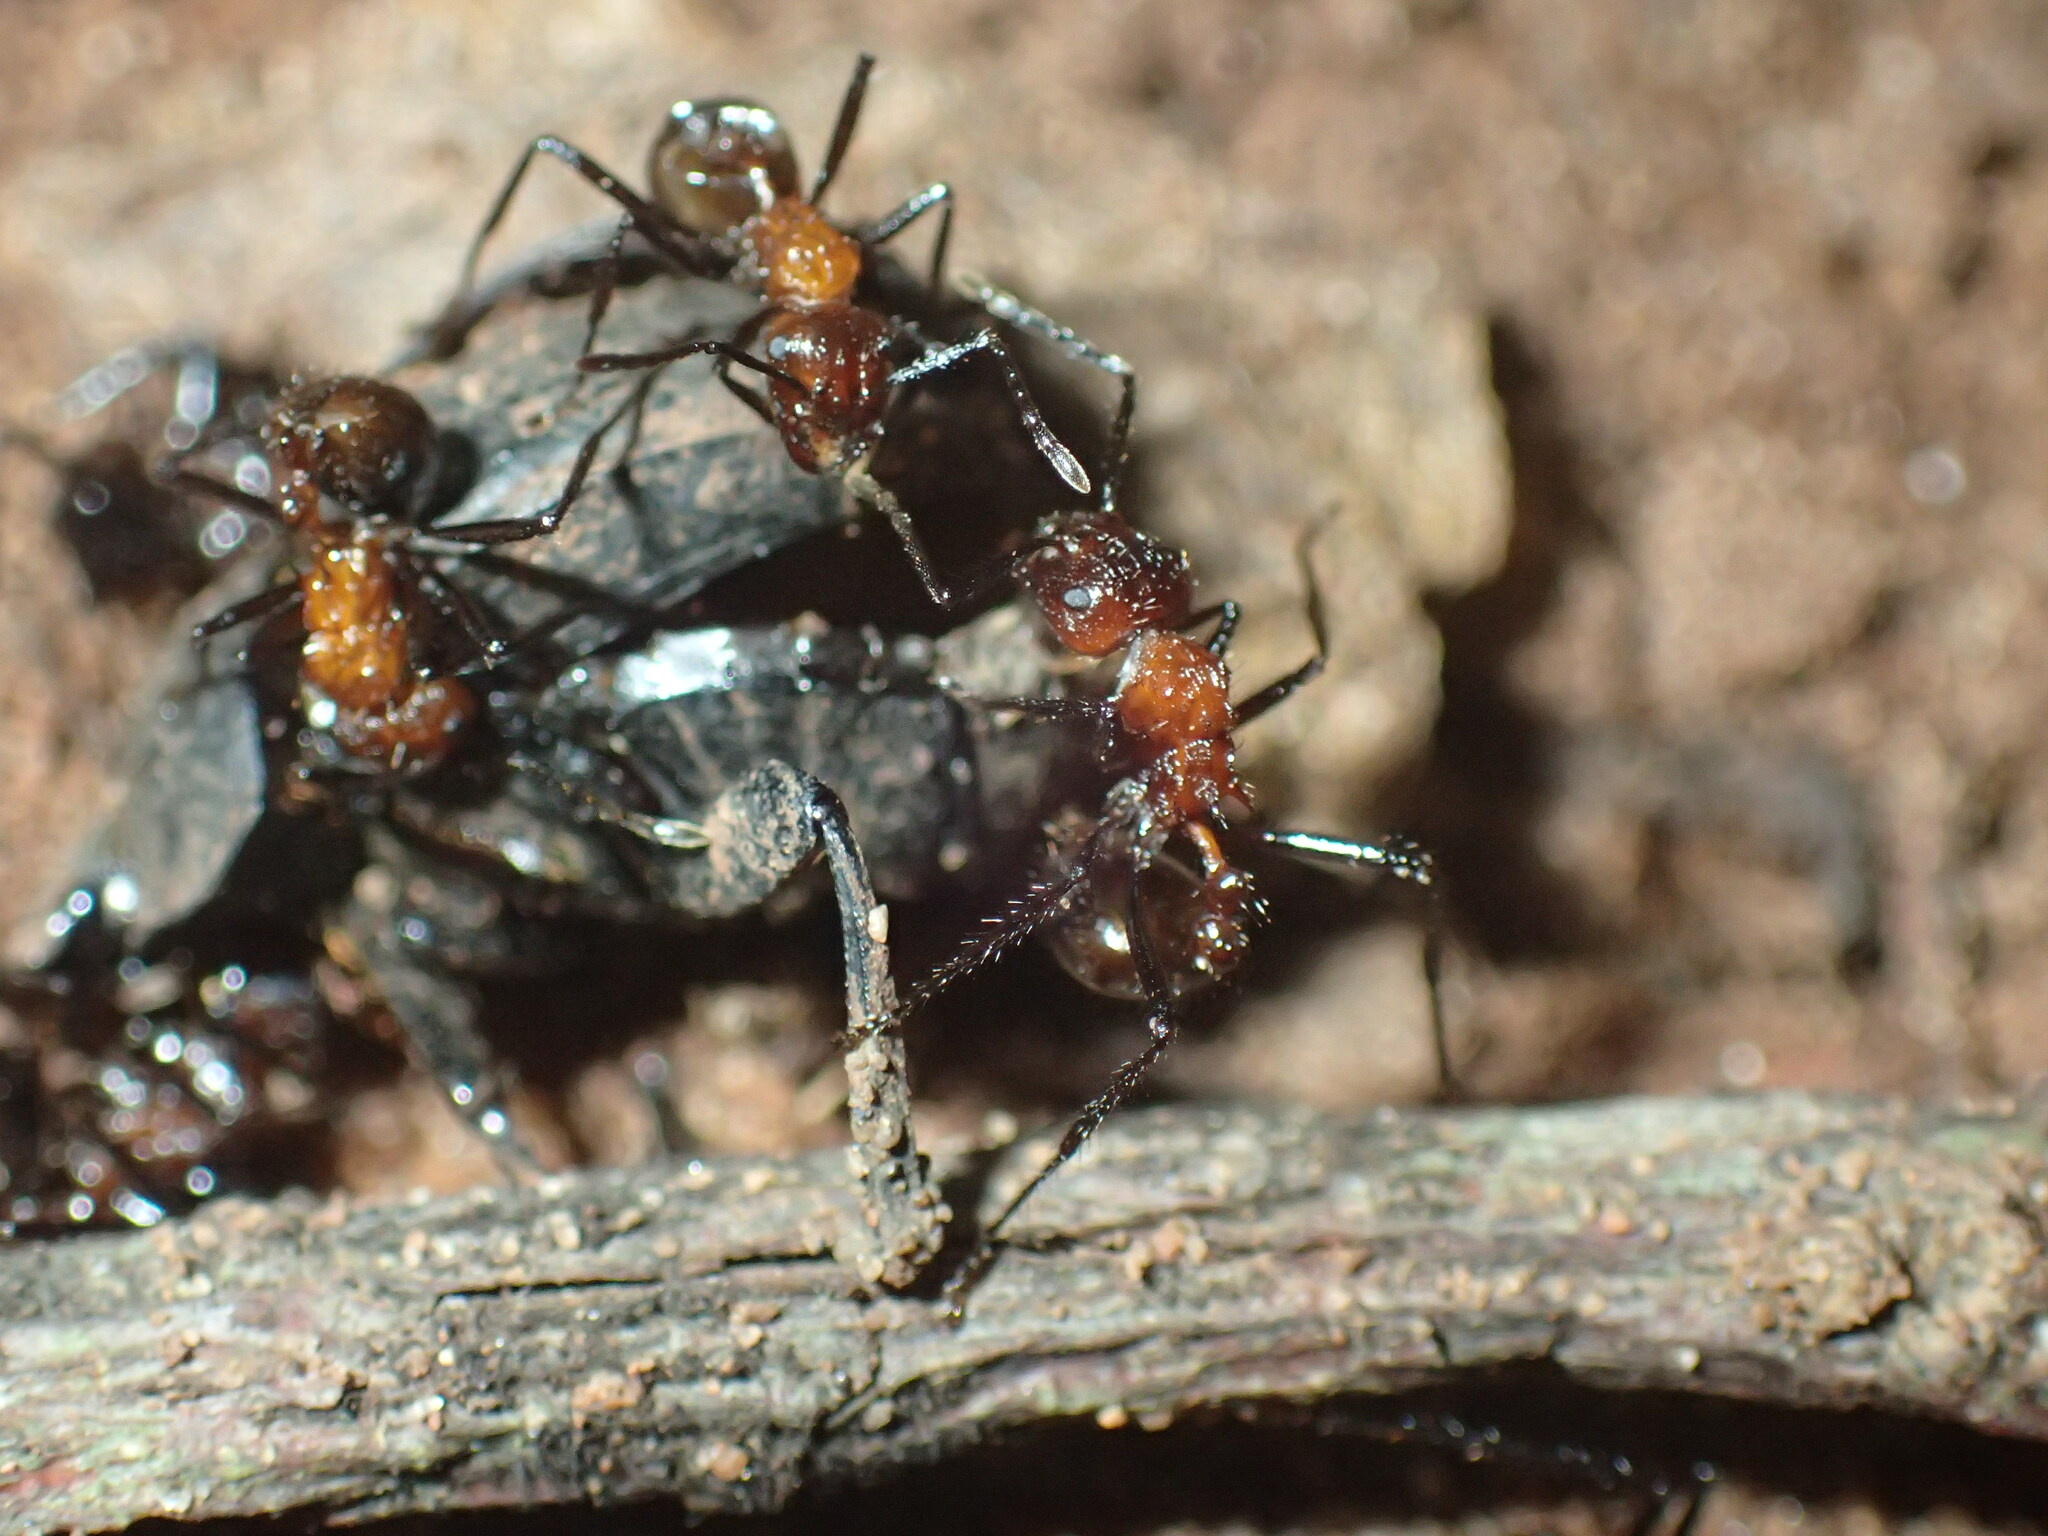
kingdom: Animalia
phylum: Arthropoda
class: Insecta
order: Hymenoptera
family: Formicidae
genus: Myrmicaria
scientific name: Myrmicaria natalensis
